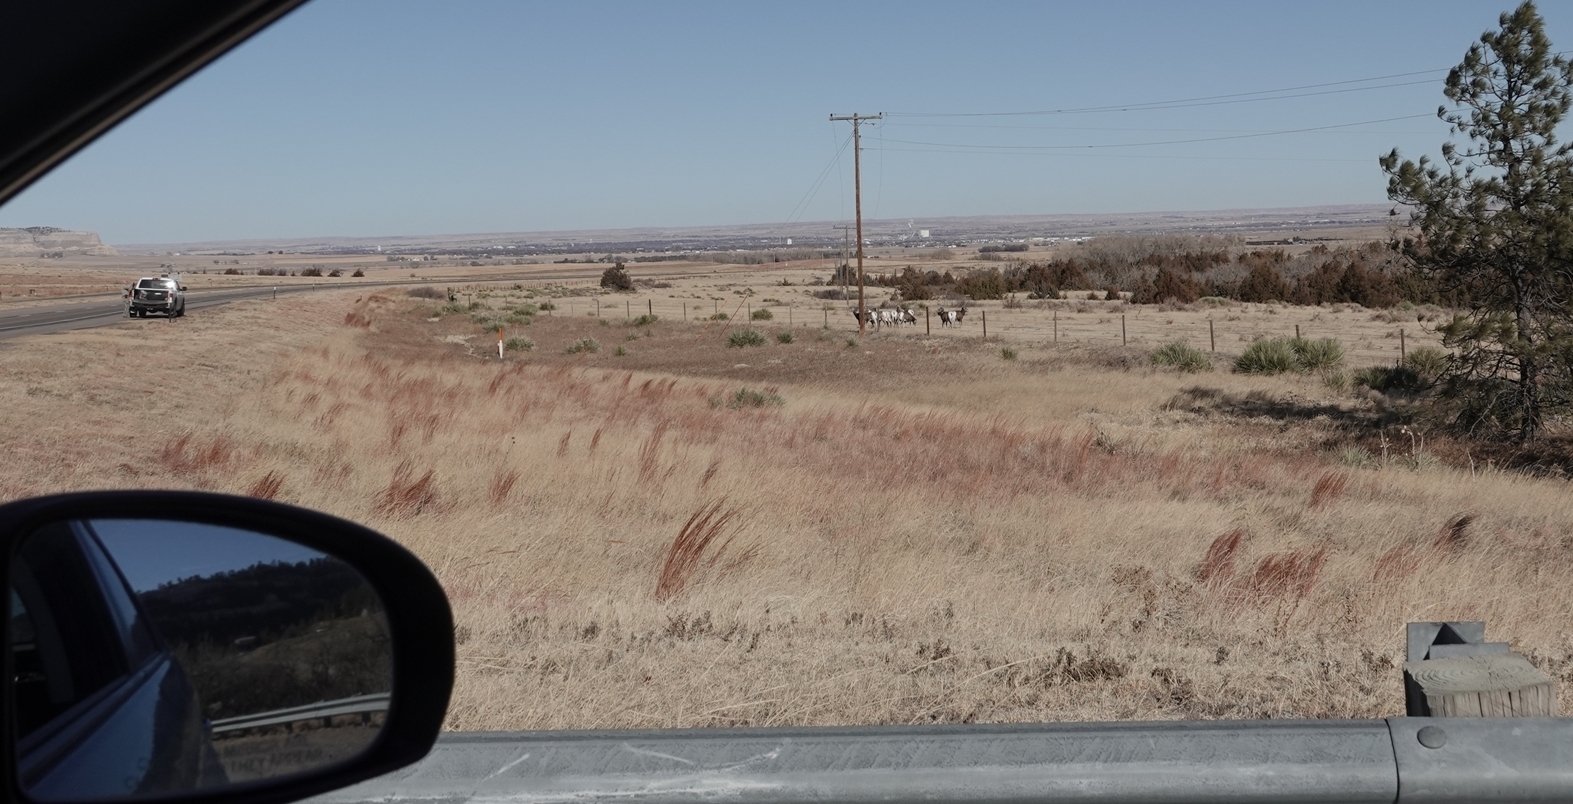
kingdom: Animalia
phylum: Chordata
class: Mammalia
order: Artiodactyla
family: Bovidae
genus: Ovis
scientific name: Ovis canadensis
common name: Bighorn sheep
